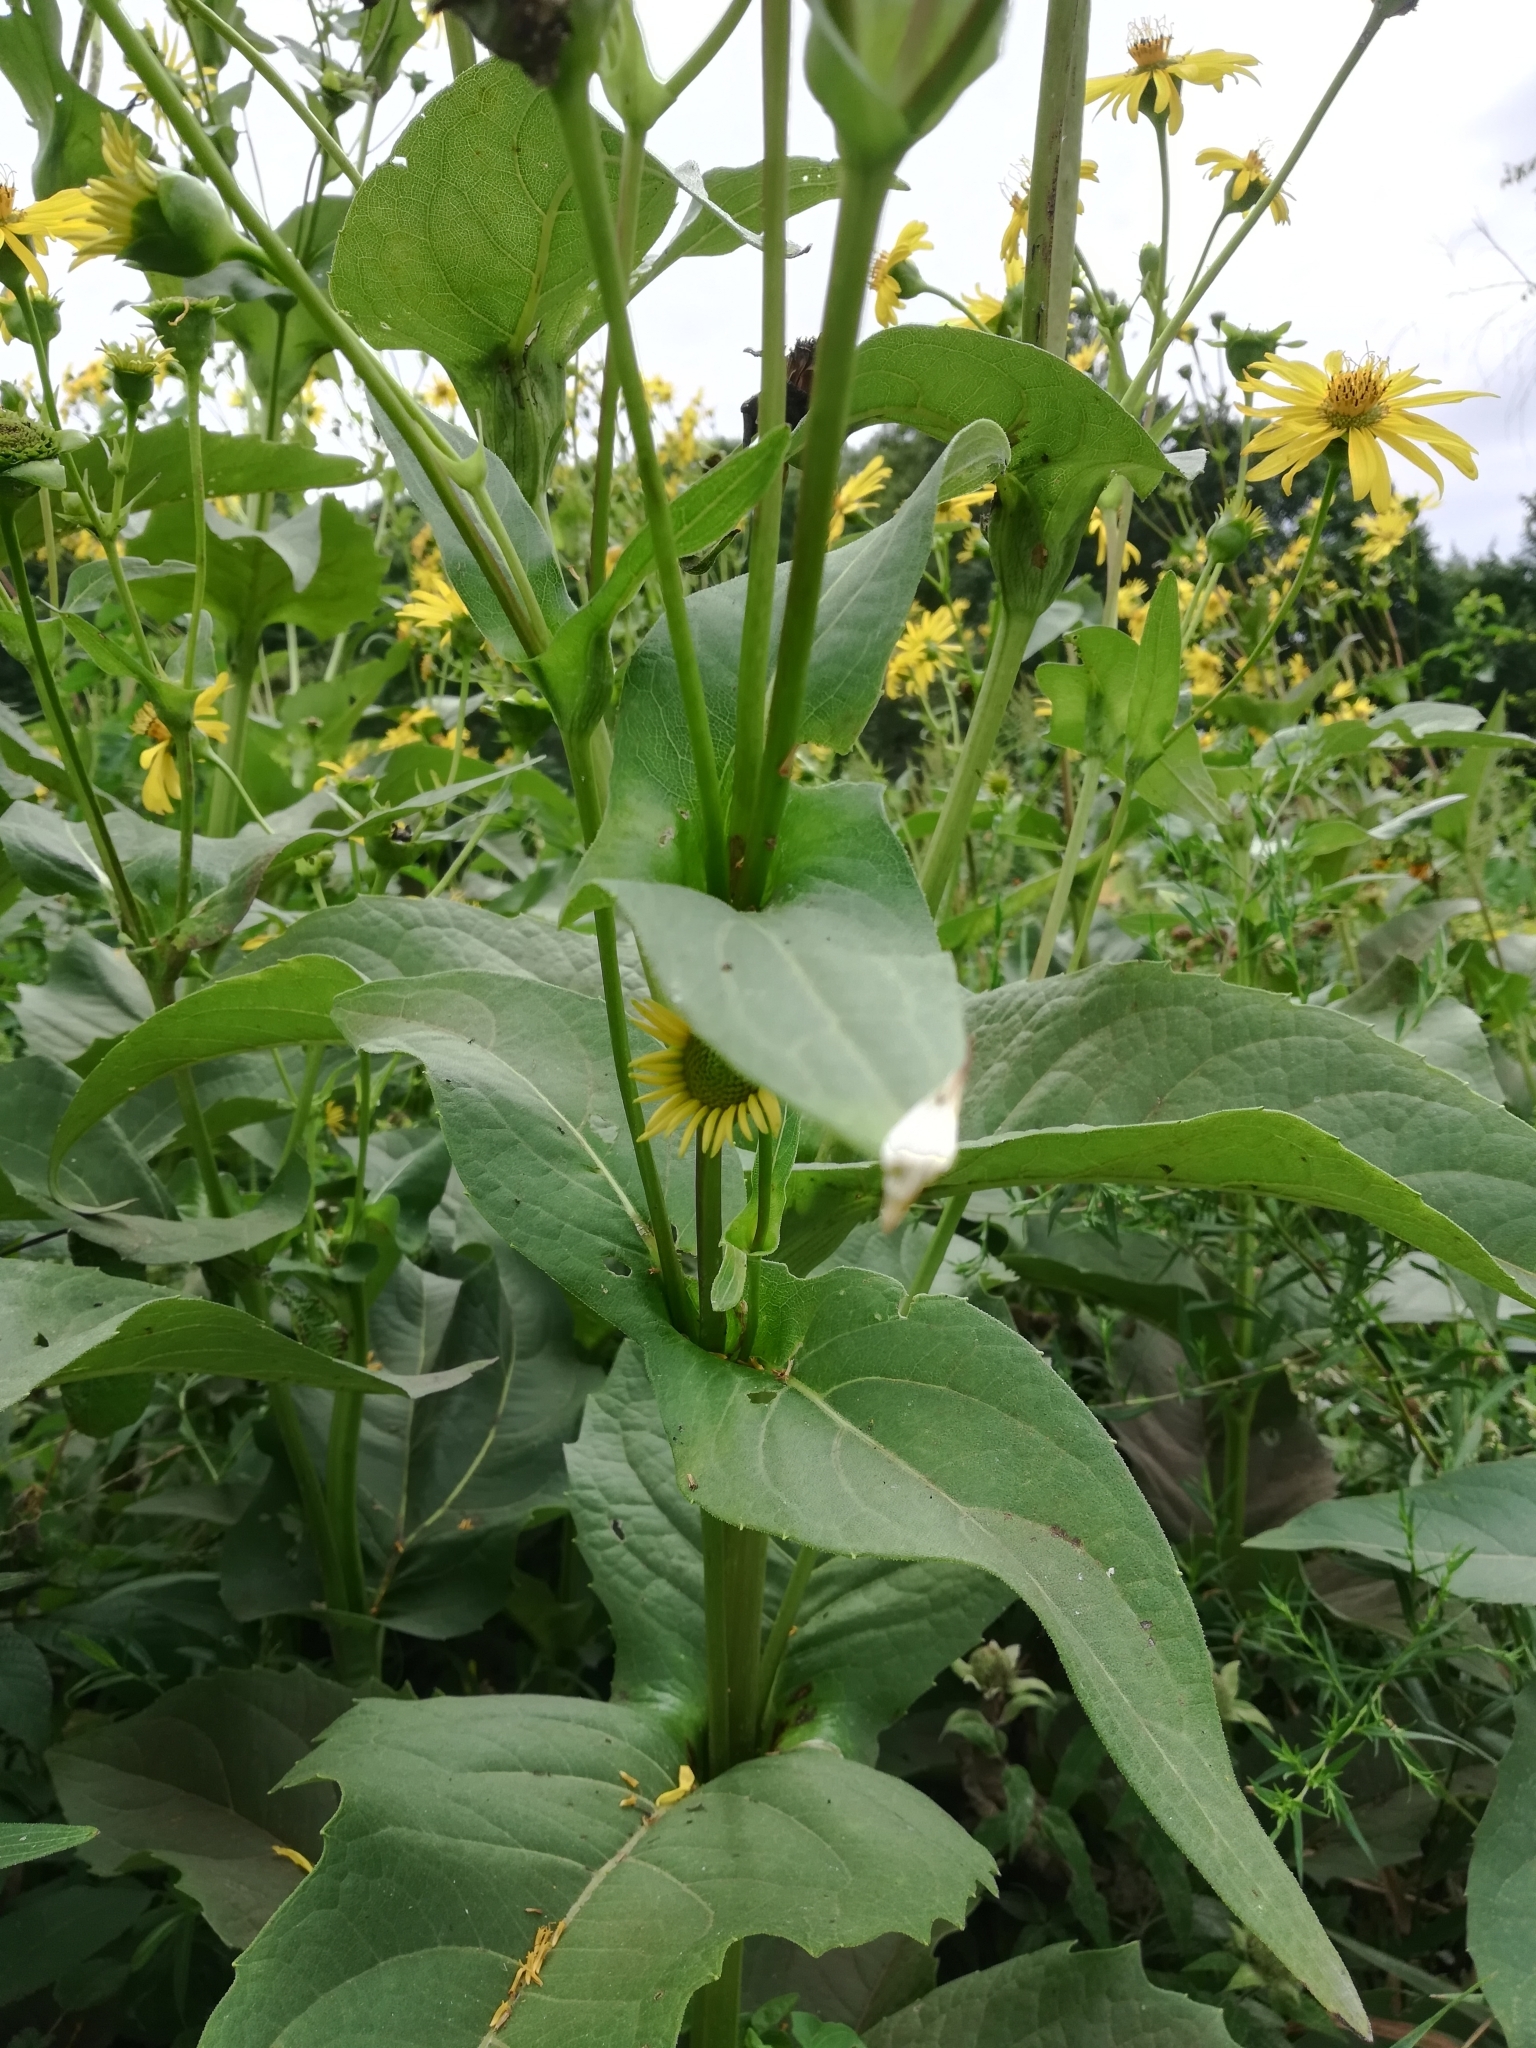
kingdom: Plantae
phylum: Tracheophyta
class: Magnoliopsida
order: Asterales
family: Asteraceae
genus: Silphium
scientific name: Silphium perfoliatum
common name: Cup-plant
